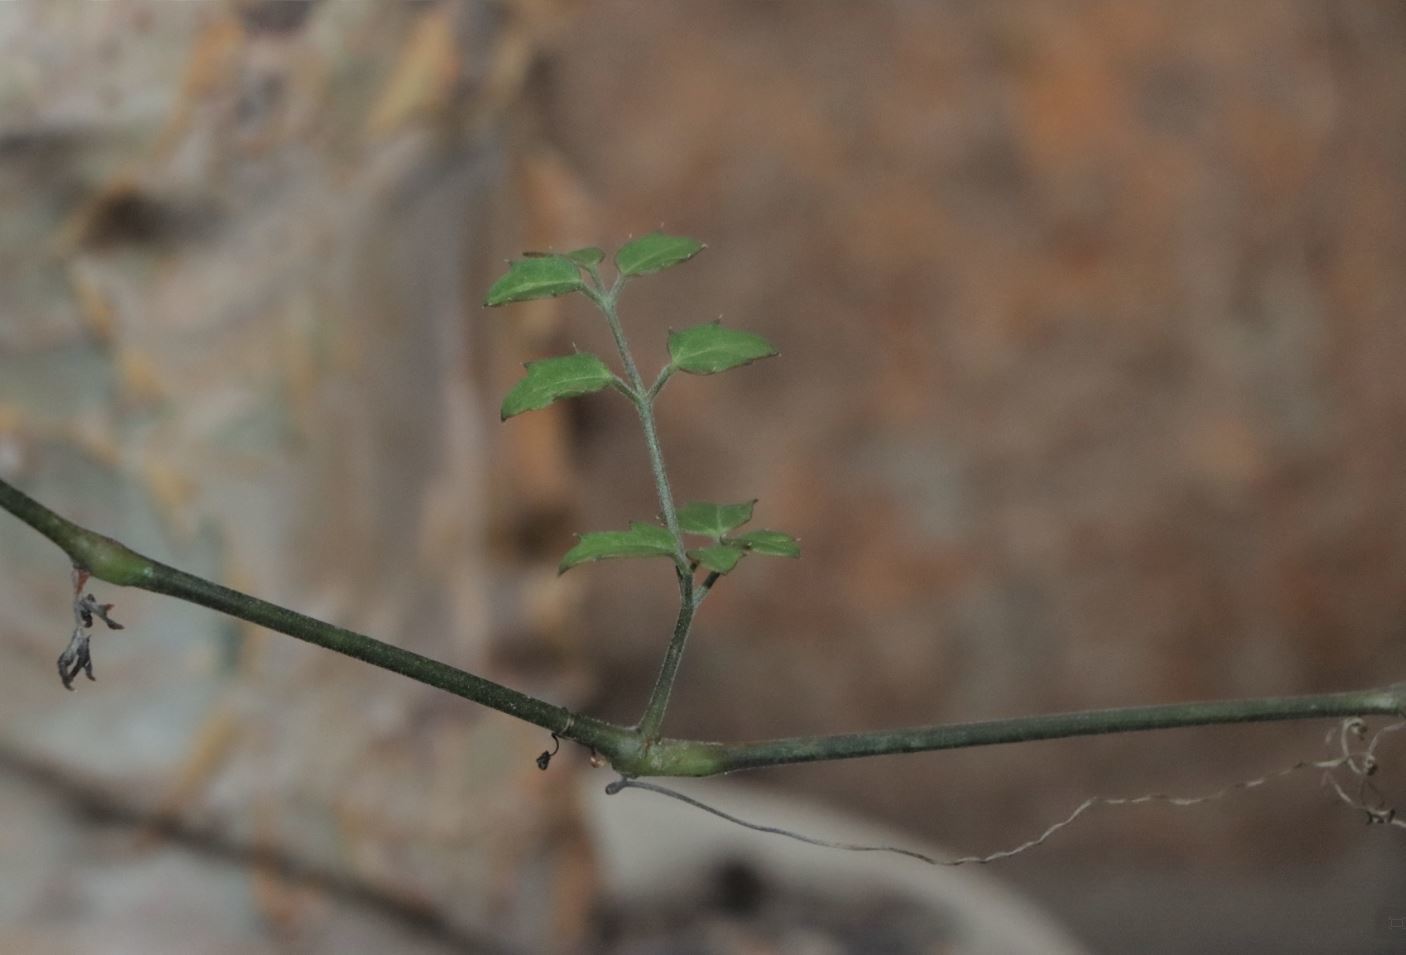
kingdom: Plantae
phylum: Tracheophyta
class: Magnoliopsida
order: Vitales
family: Vitaceae
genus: Cyphostemma
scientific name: Cyphostemma elephantopus
